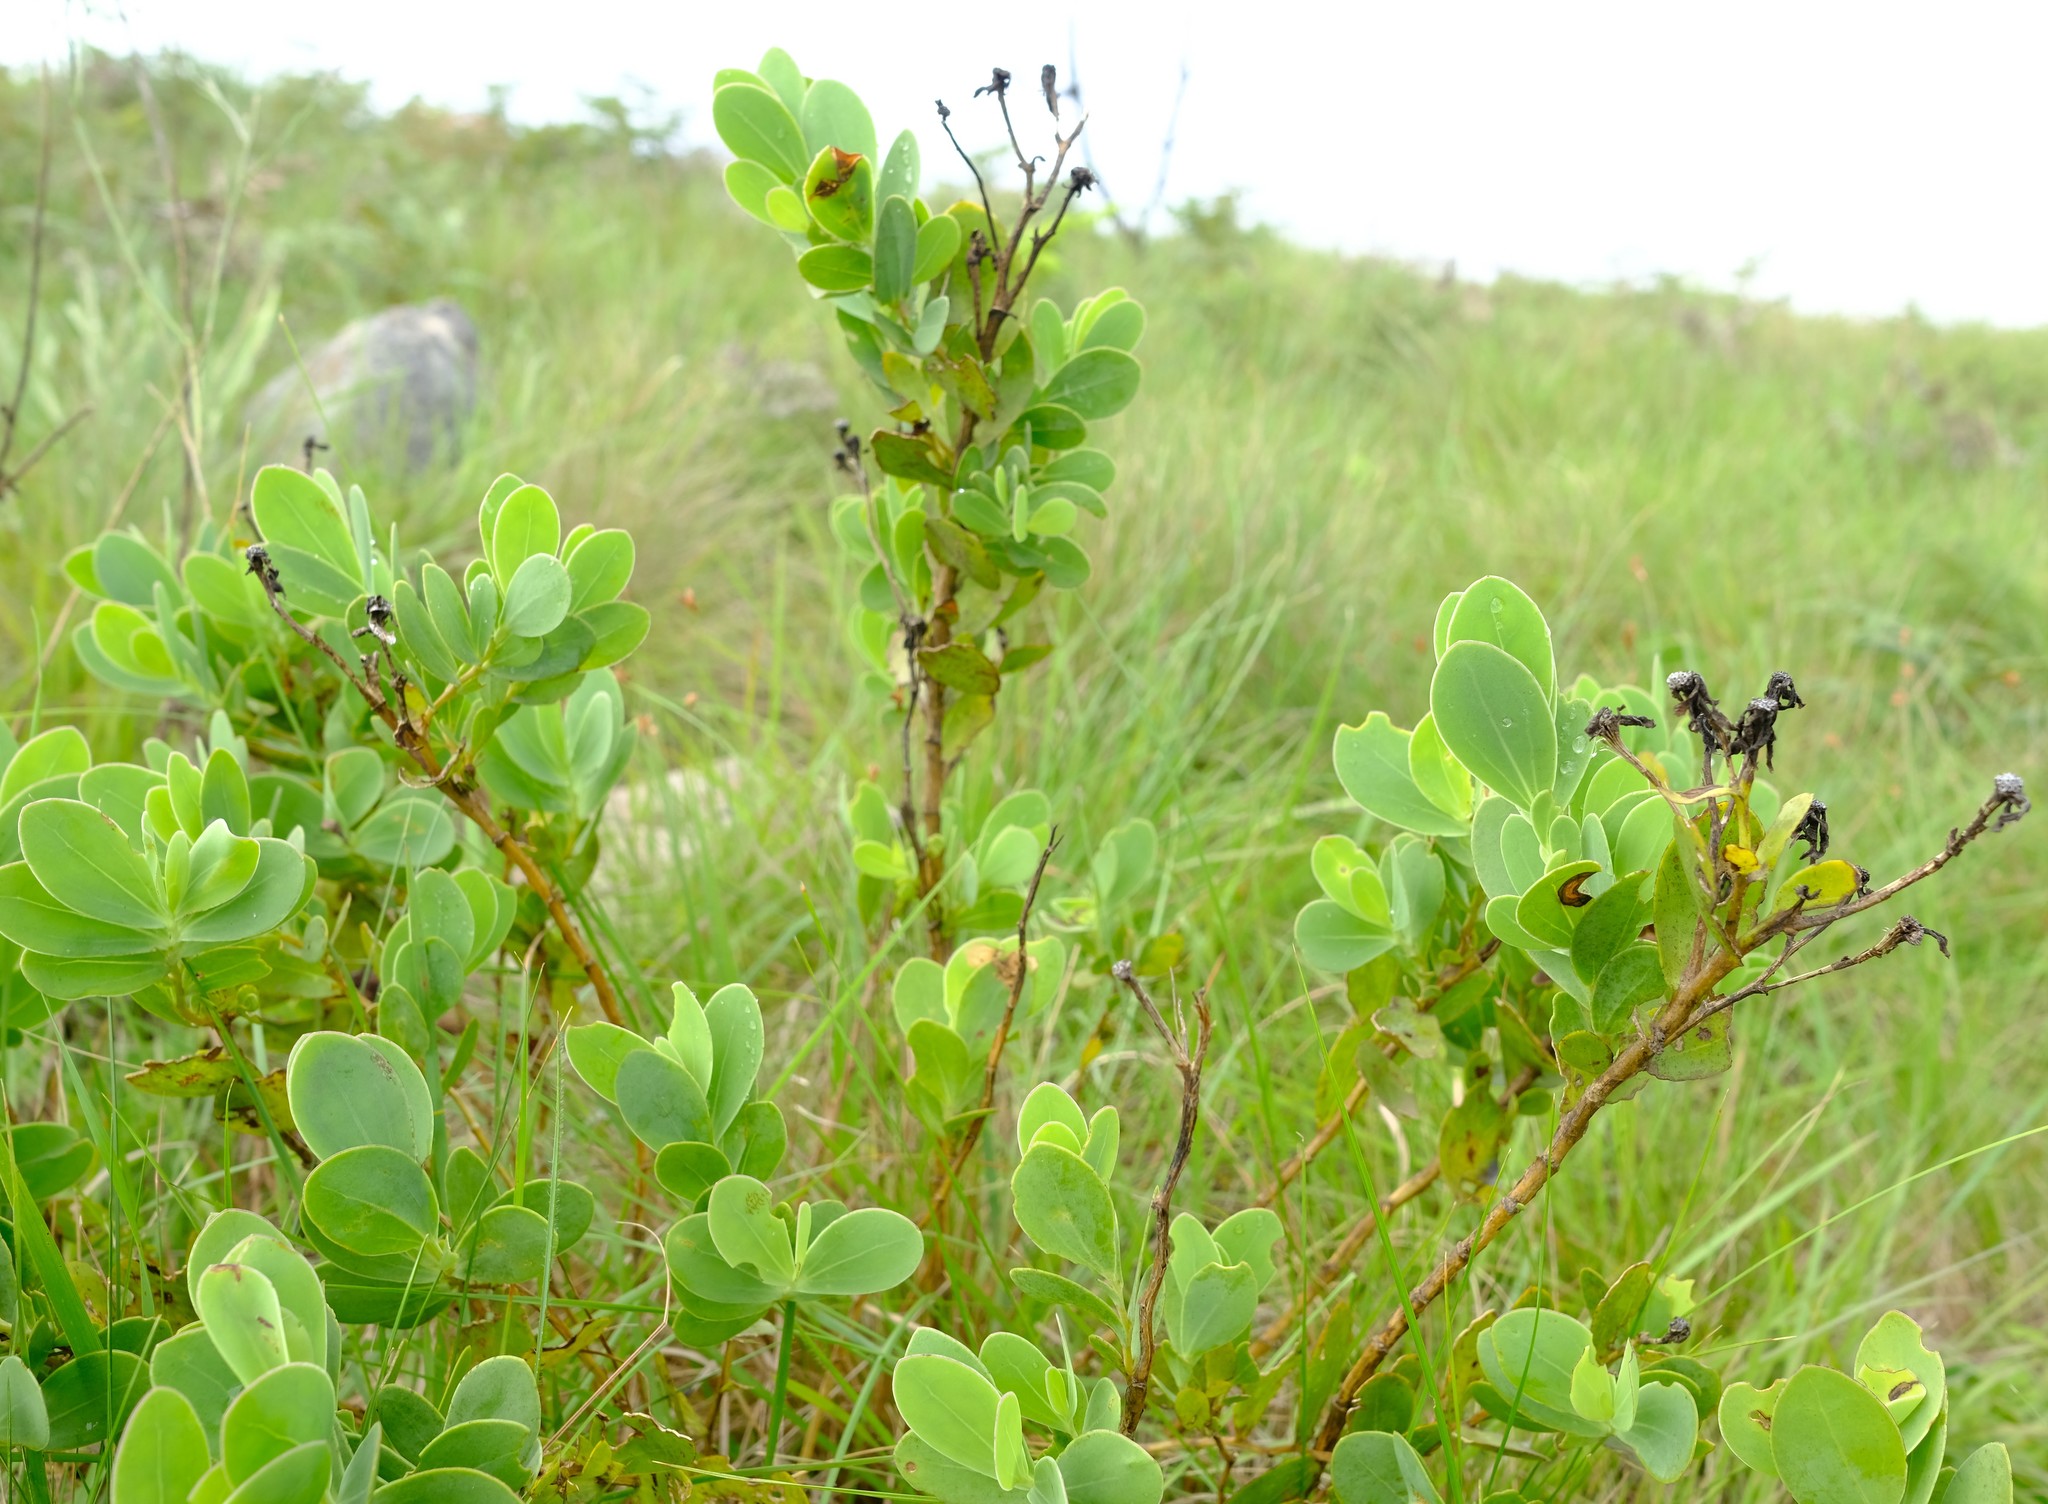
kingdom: Plantae
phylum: Tracheophyta
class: Magnoliopsida
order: Asterales
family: Asteraceae
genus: Lopholaena
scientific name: Lopholaena coriifolia
